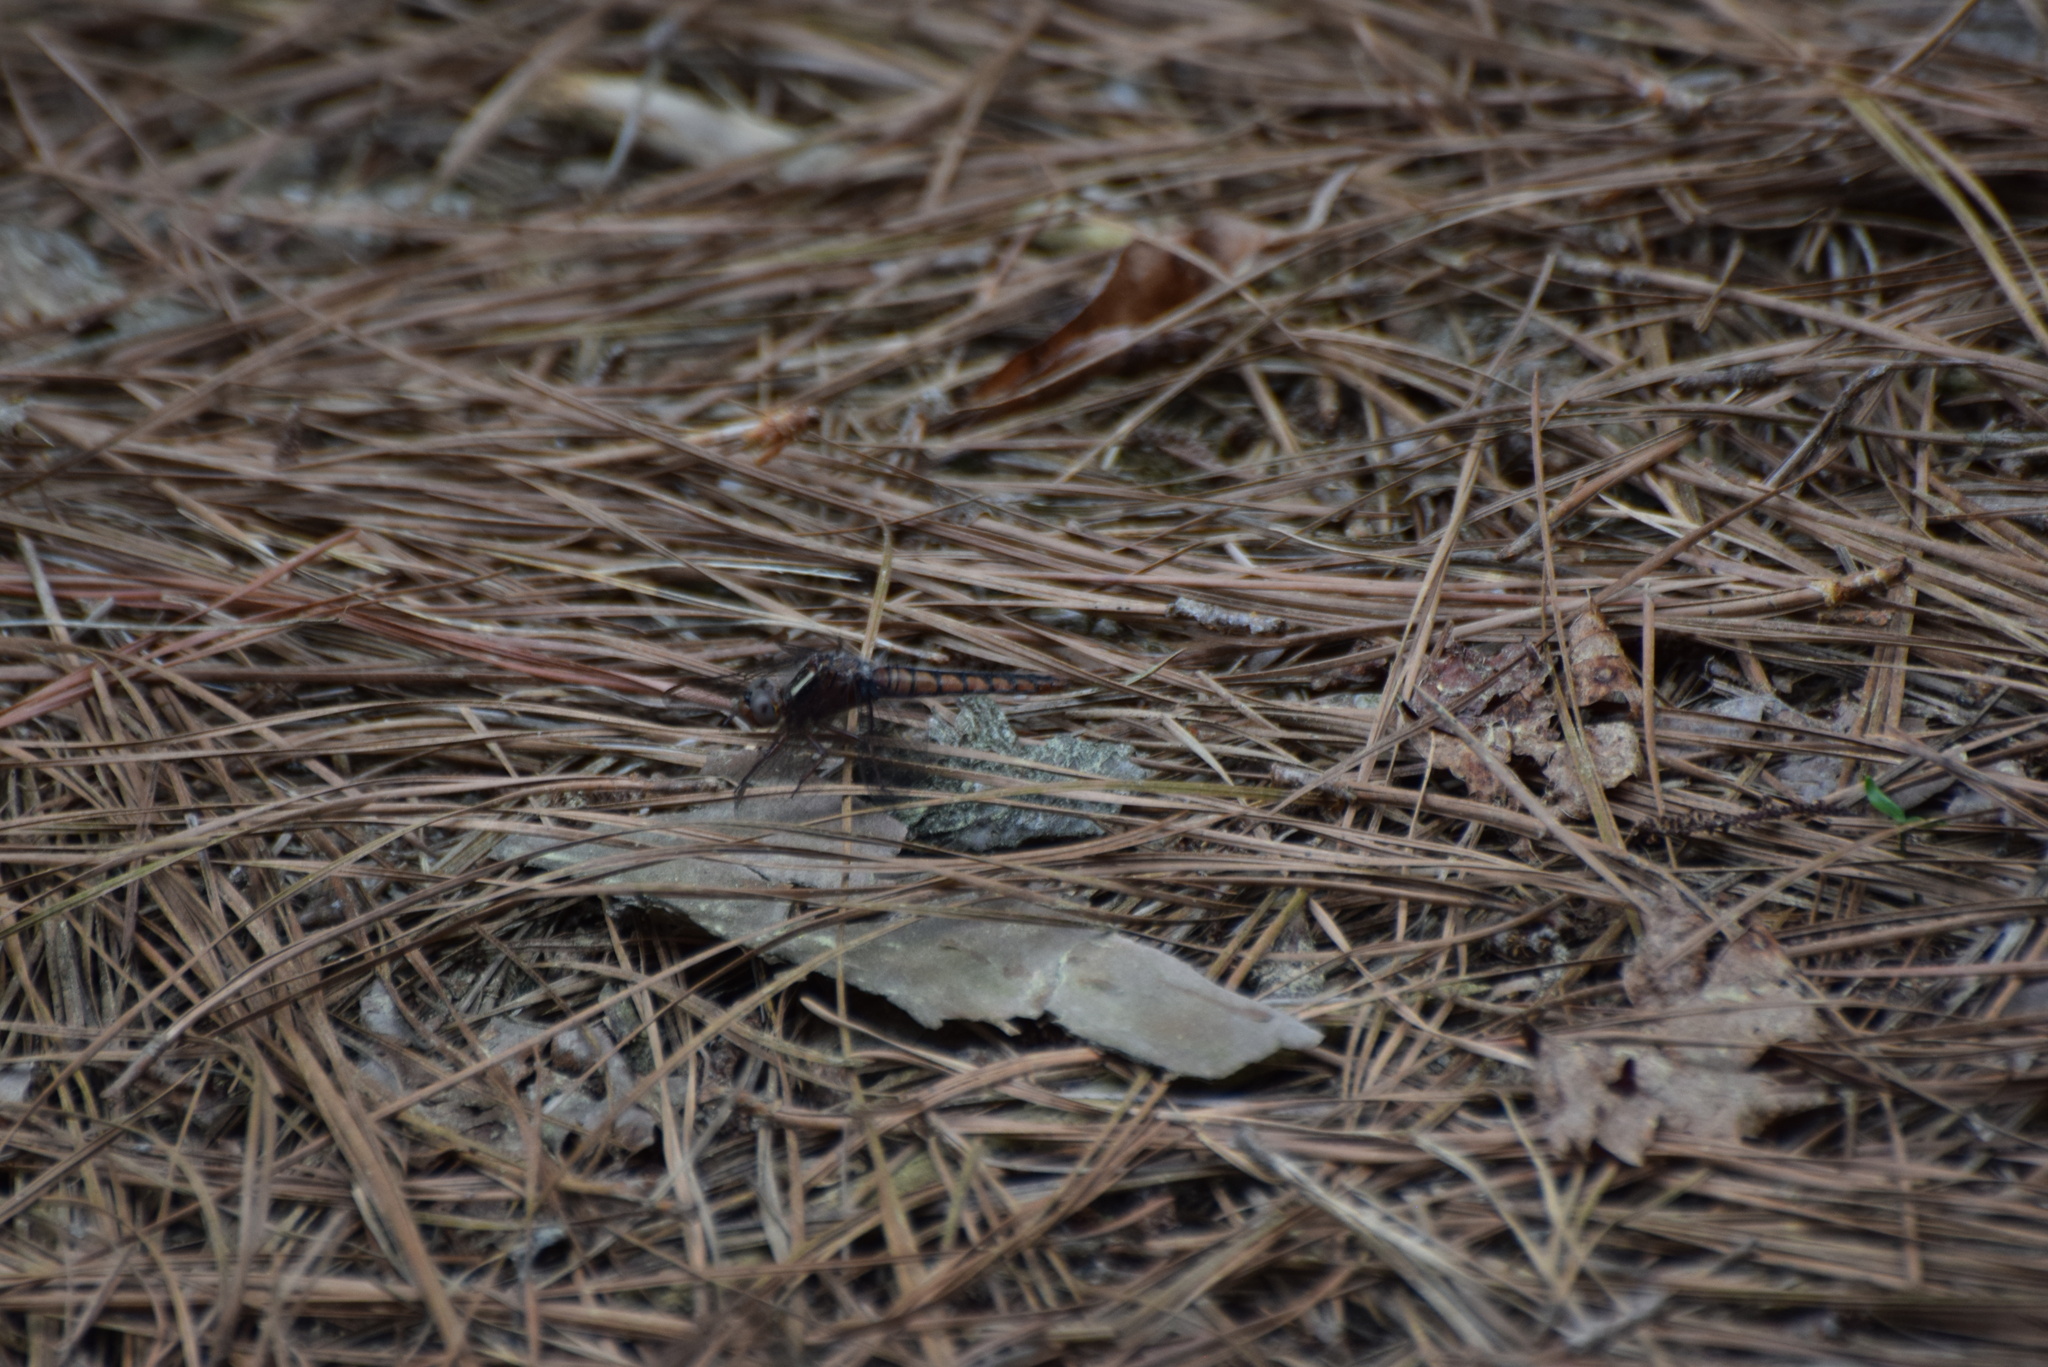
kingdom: Animalia
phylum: Arthropoda
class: Insecta
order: Odonata
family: Libellulidae
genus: Ladona
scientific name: Ladona deplanata
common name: Blue corporal
